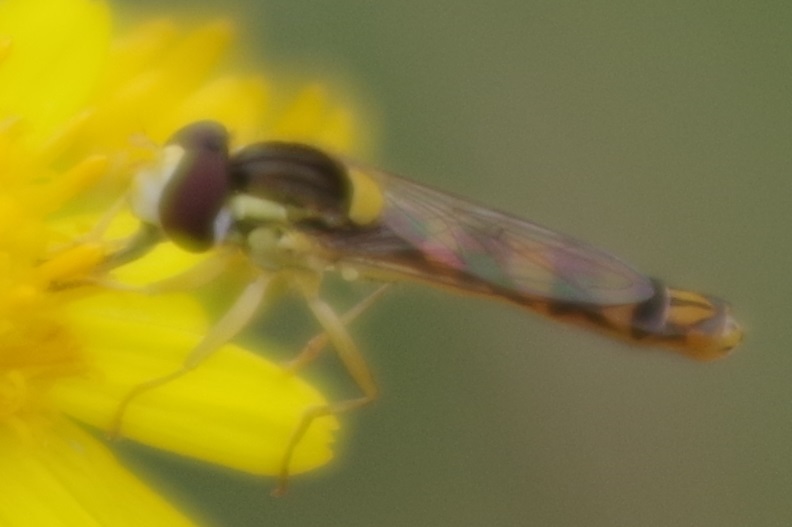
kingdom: Animalia
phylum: Arthropoda
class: Insecta
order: Diptera
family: Syrphidae
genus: Sphaerophoria
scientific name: Sphaerophoria scripta
